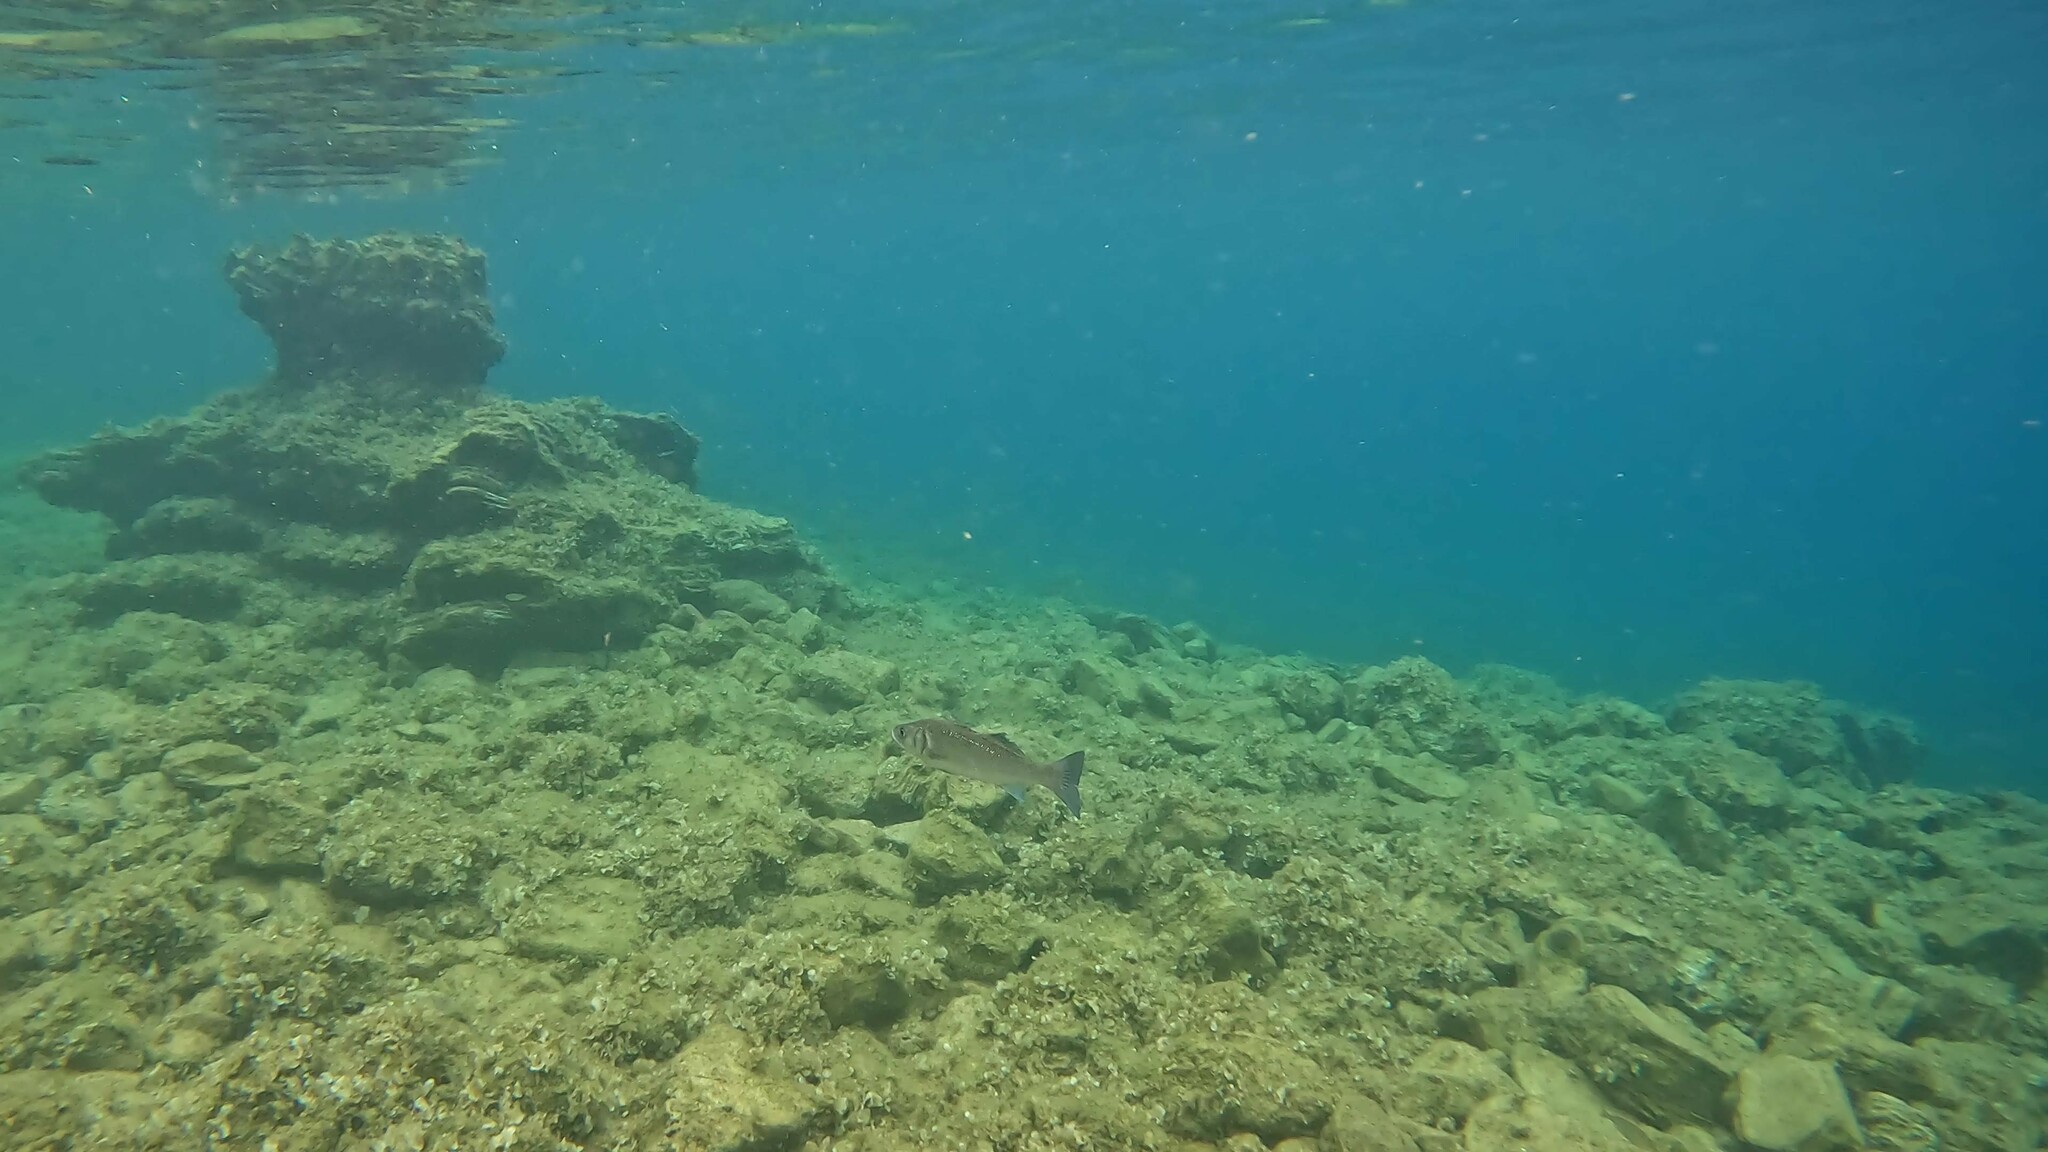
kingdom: Animalia
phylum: Chordata
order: Perciformes
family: Moronidae
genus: Dicentrarchus
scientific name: Dicentrarchus labrax
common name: European seabass
